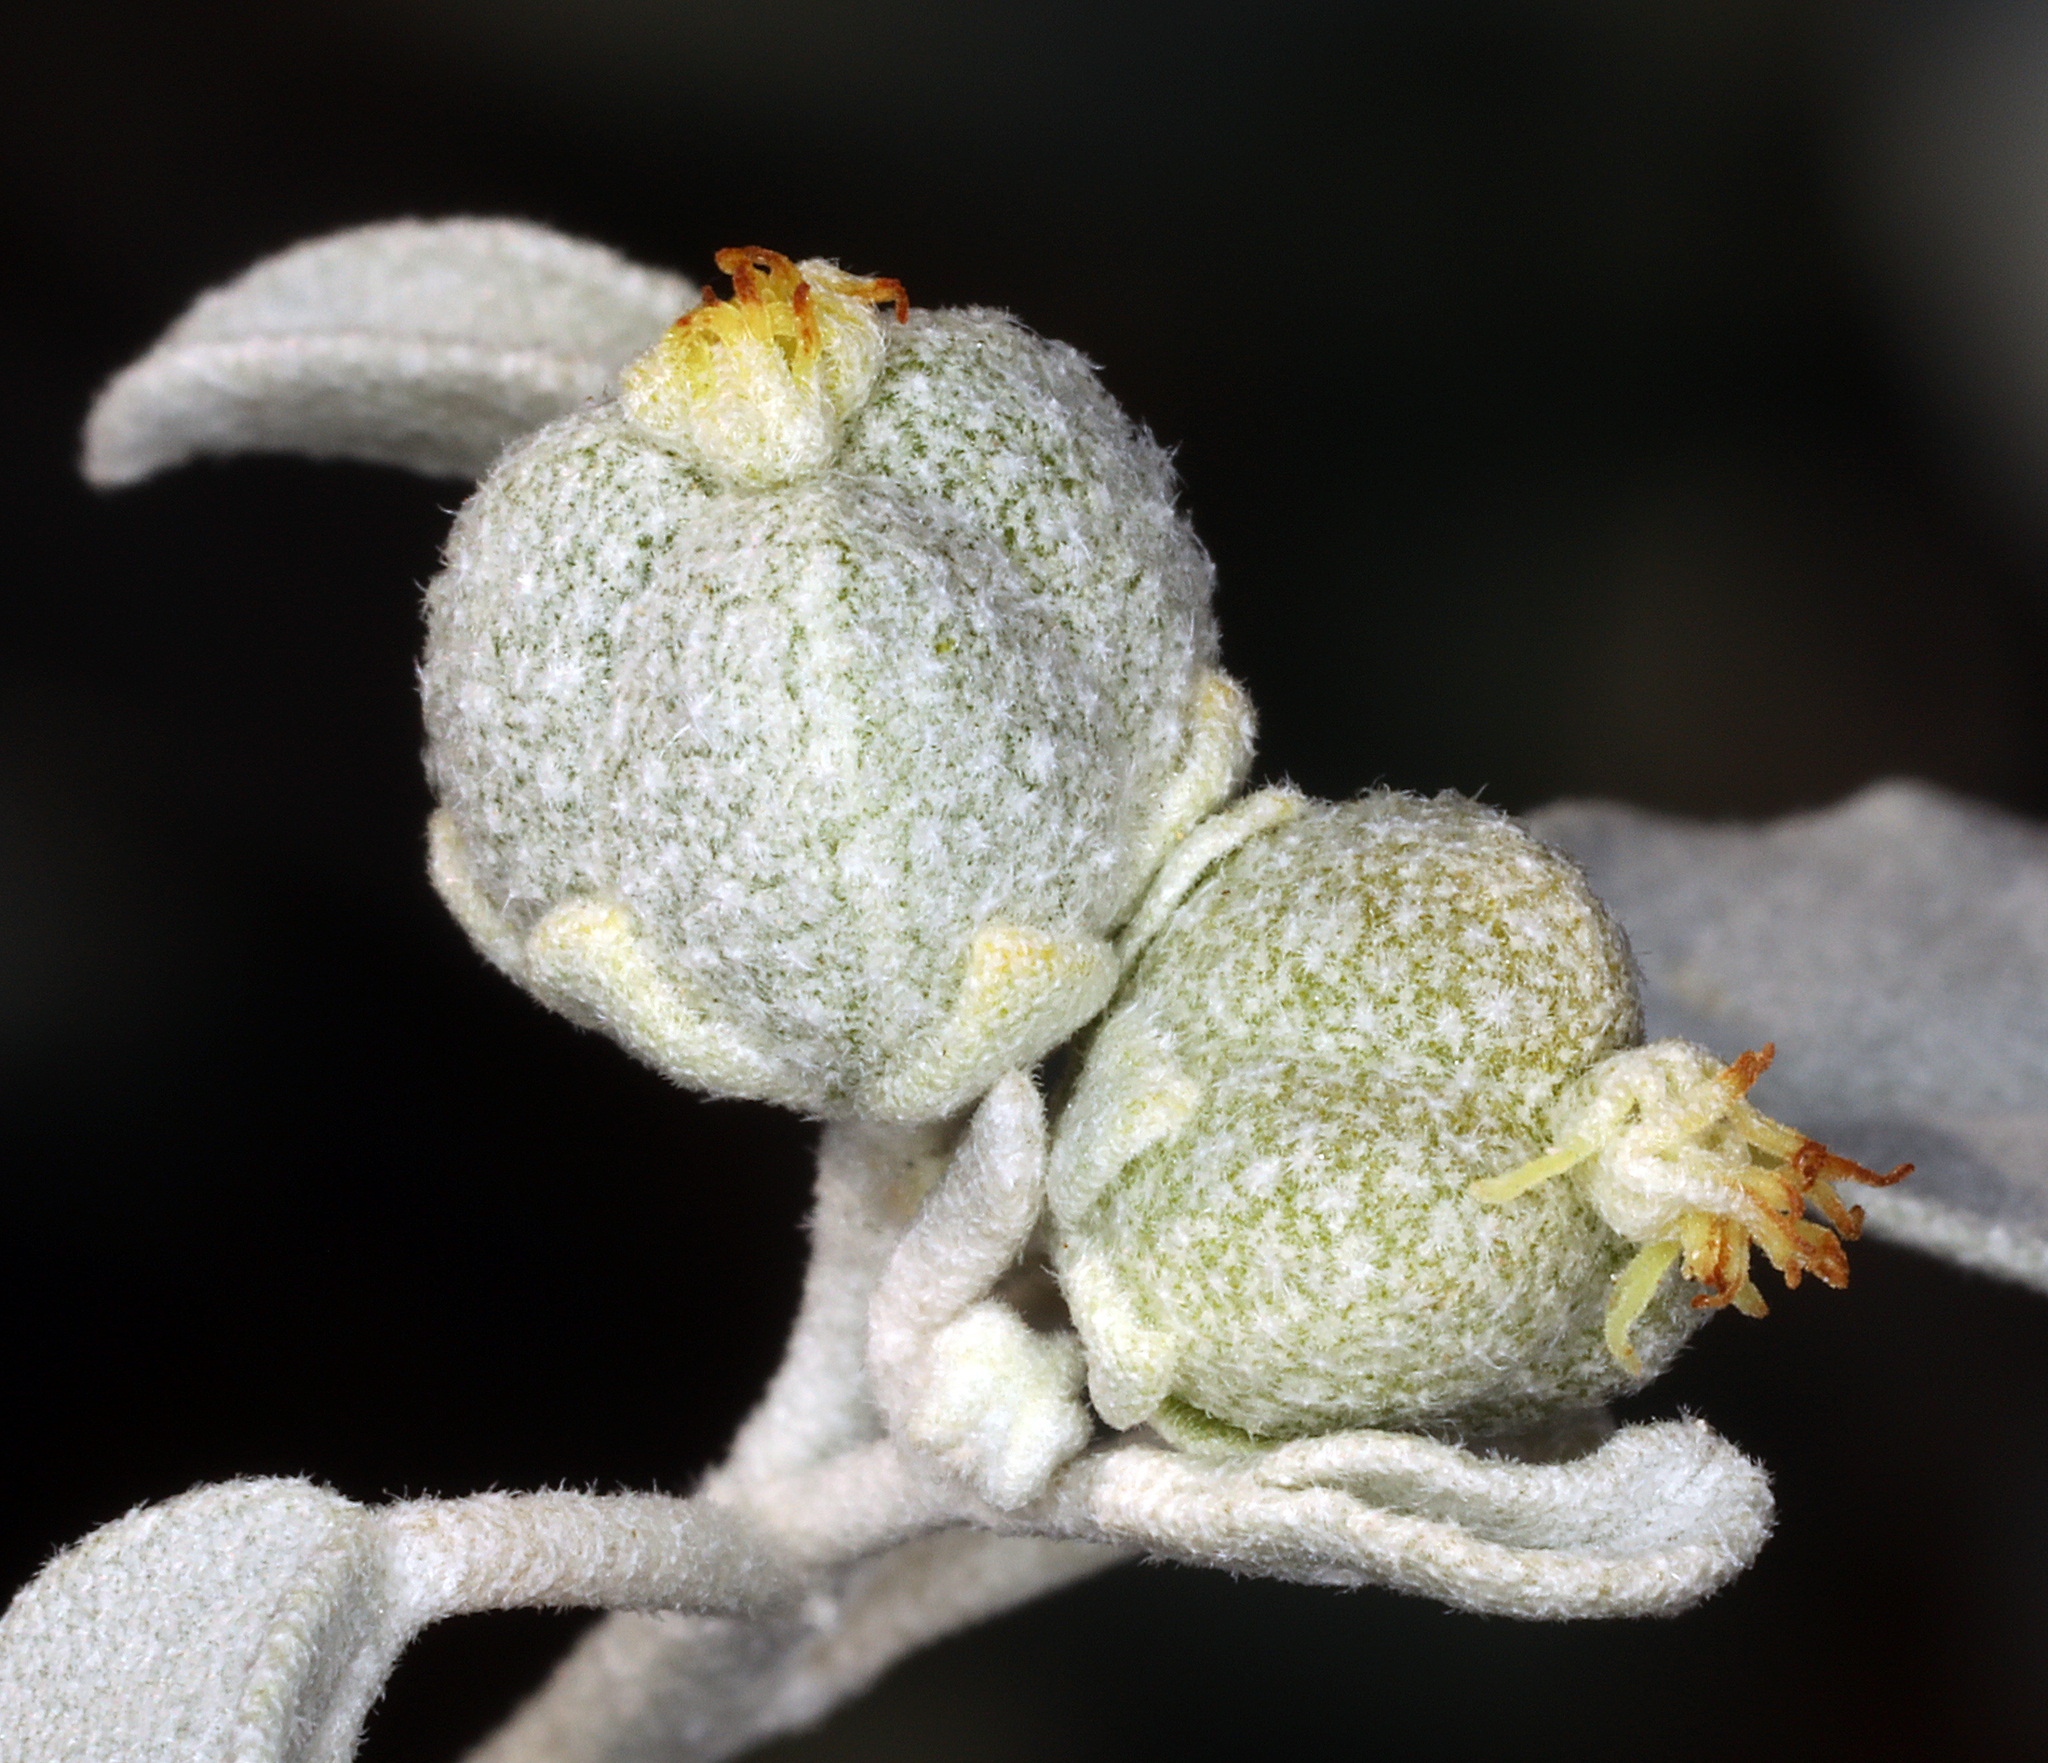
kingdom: Plantae
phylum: Tracheophyta
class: Magnoliopsida
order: Malpighiales
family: Euphorbiaceae
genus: Croton
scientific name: Croton californicus
